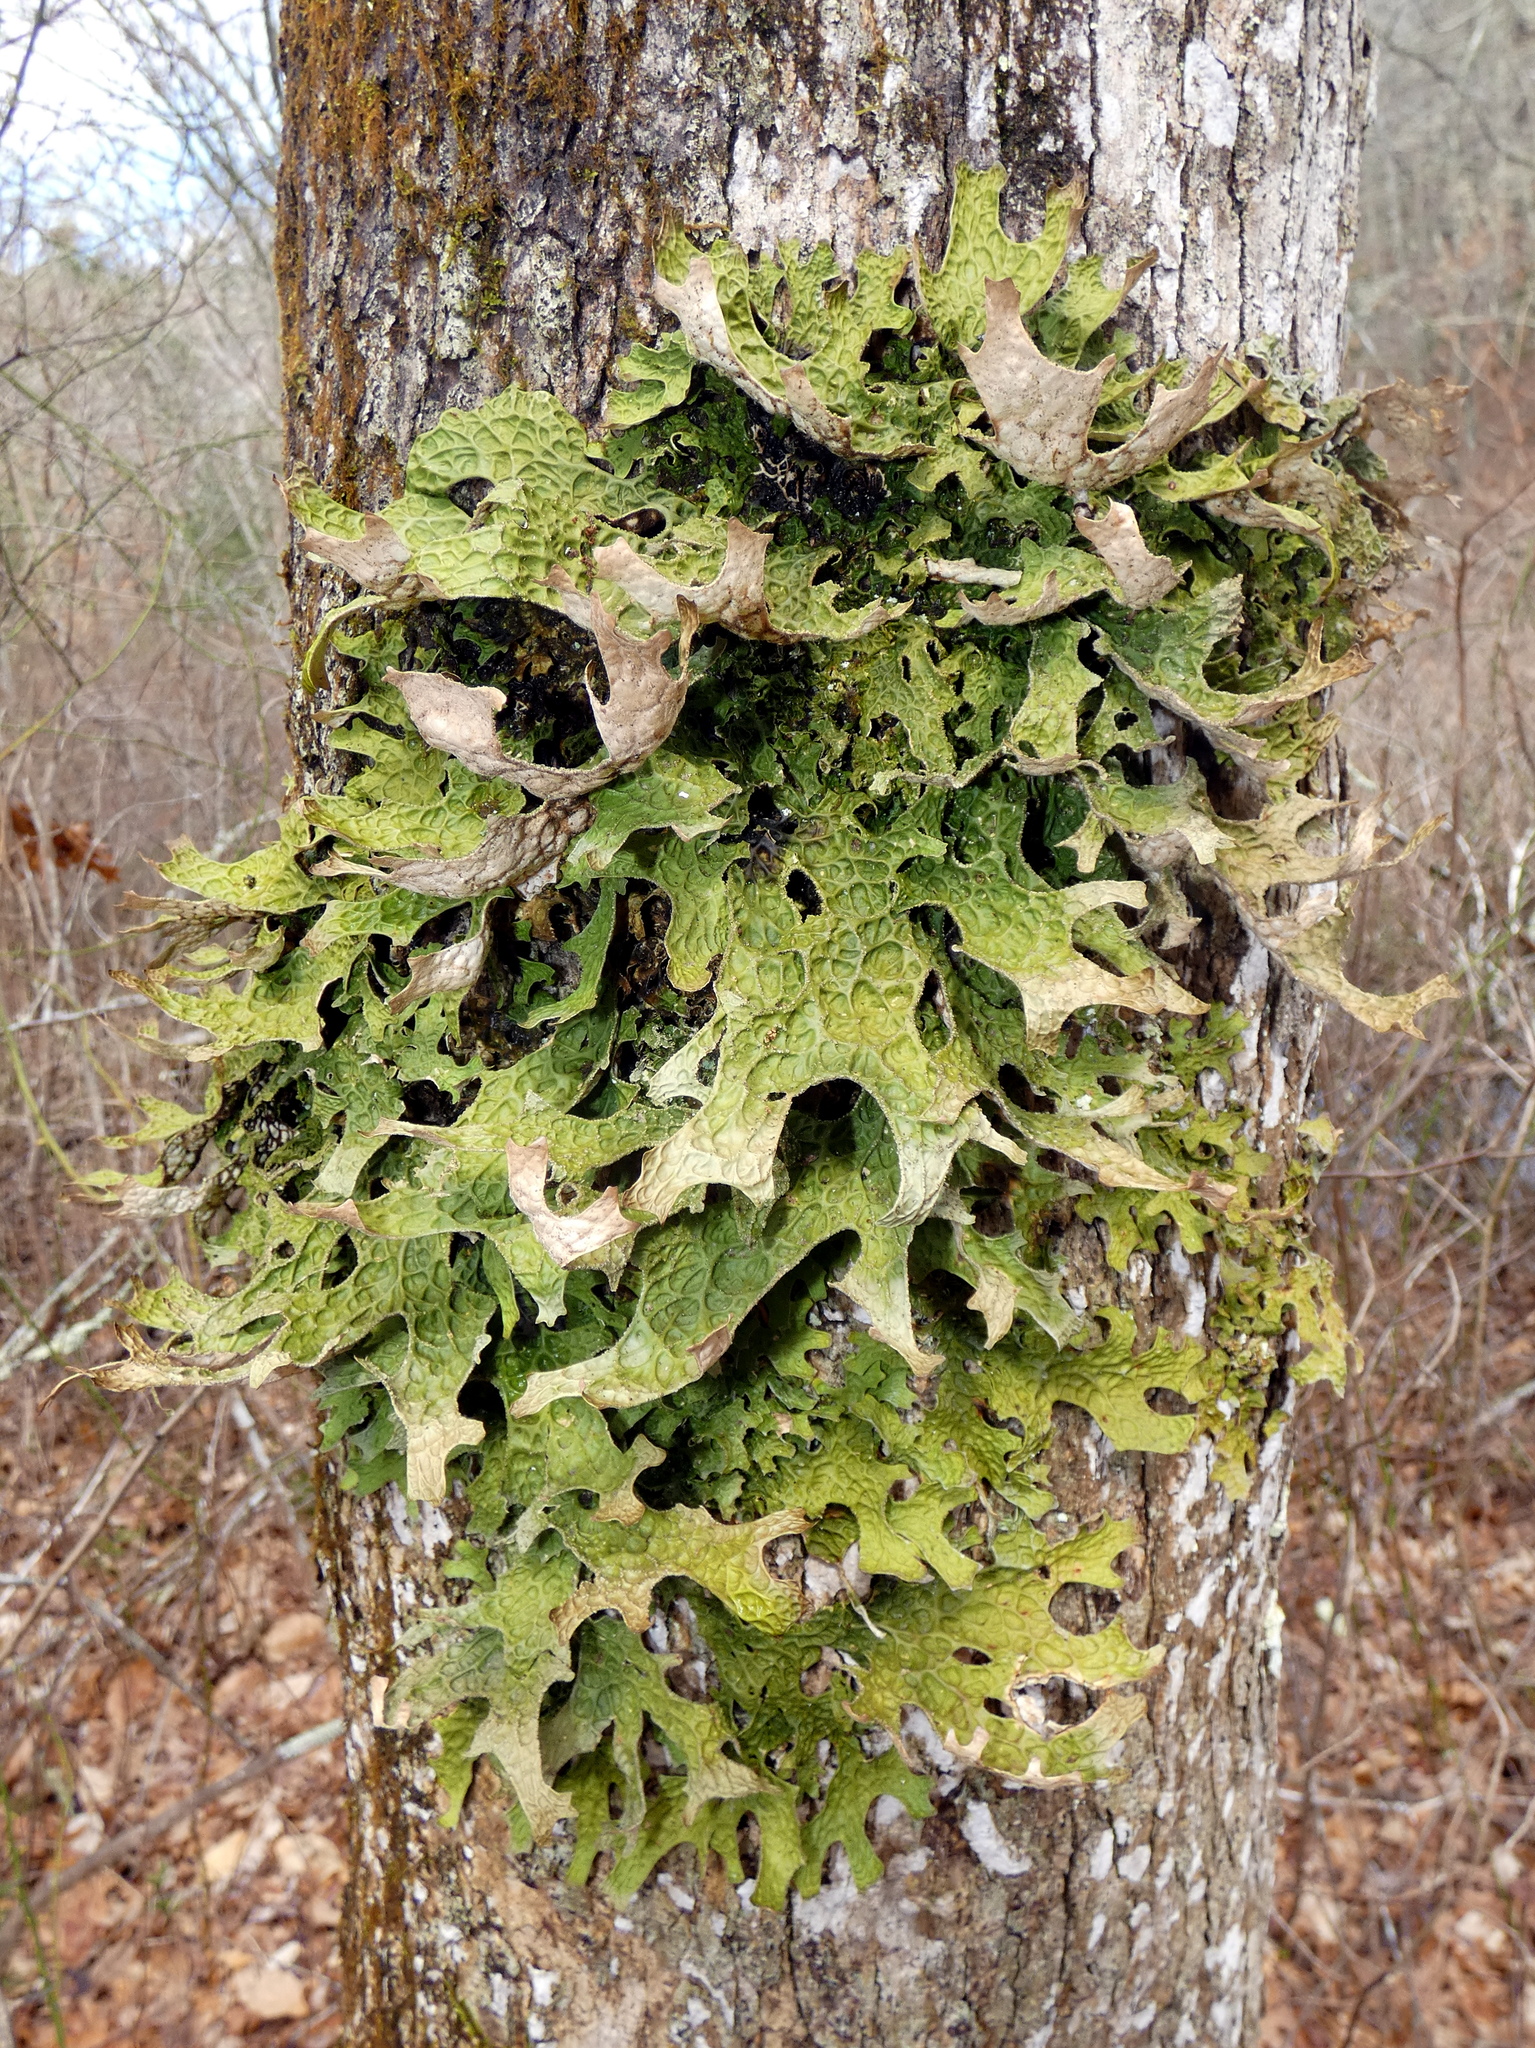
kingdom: Fungi
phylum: Ascomycota
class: Lecanoromycetes
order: Peltigerales
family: Lobariaceae
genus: Lobaria
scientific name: Lobaria pulmonaria
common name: Lungwort
